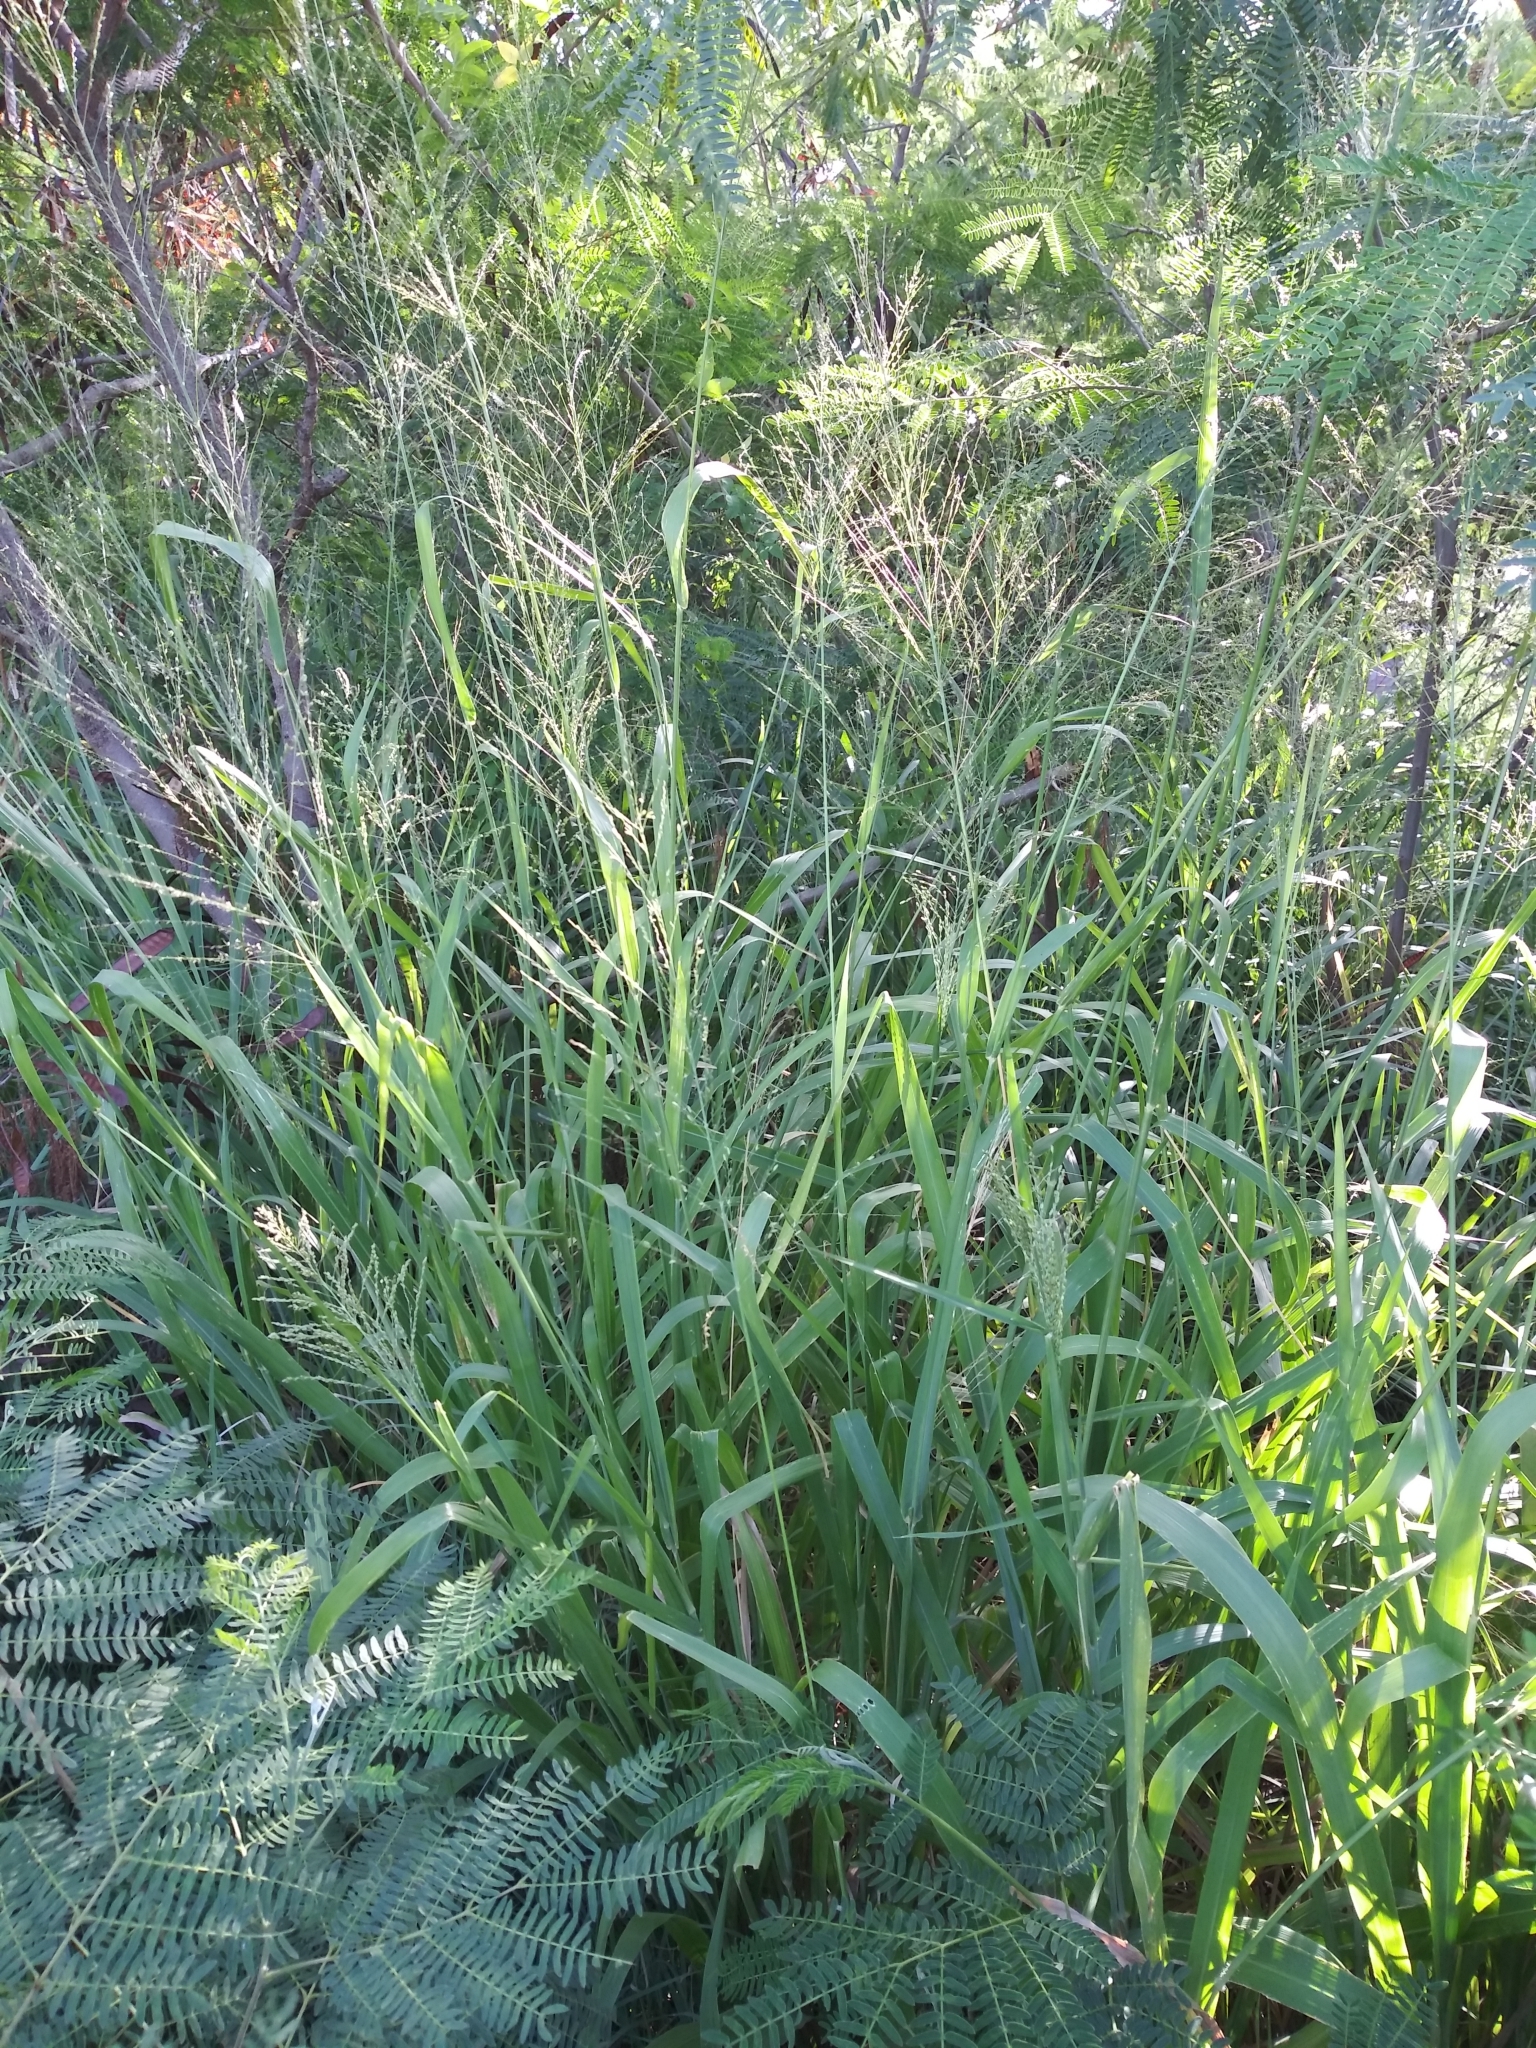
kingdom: Plantae
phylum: Tracheophyta
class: Liliopsida
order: Poales
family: Poaceae
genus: Megathyrsus
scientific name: Megathyrsus maximus
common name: Guineagrass
